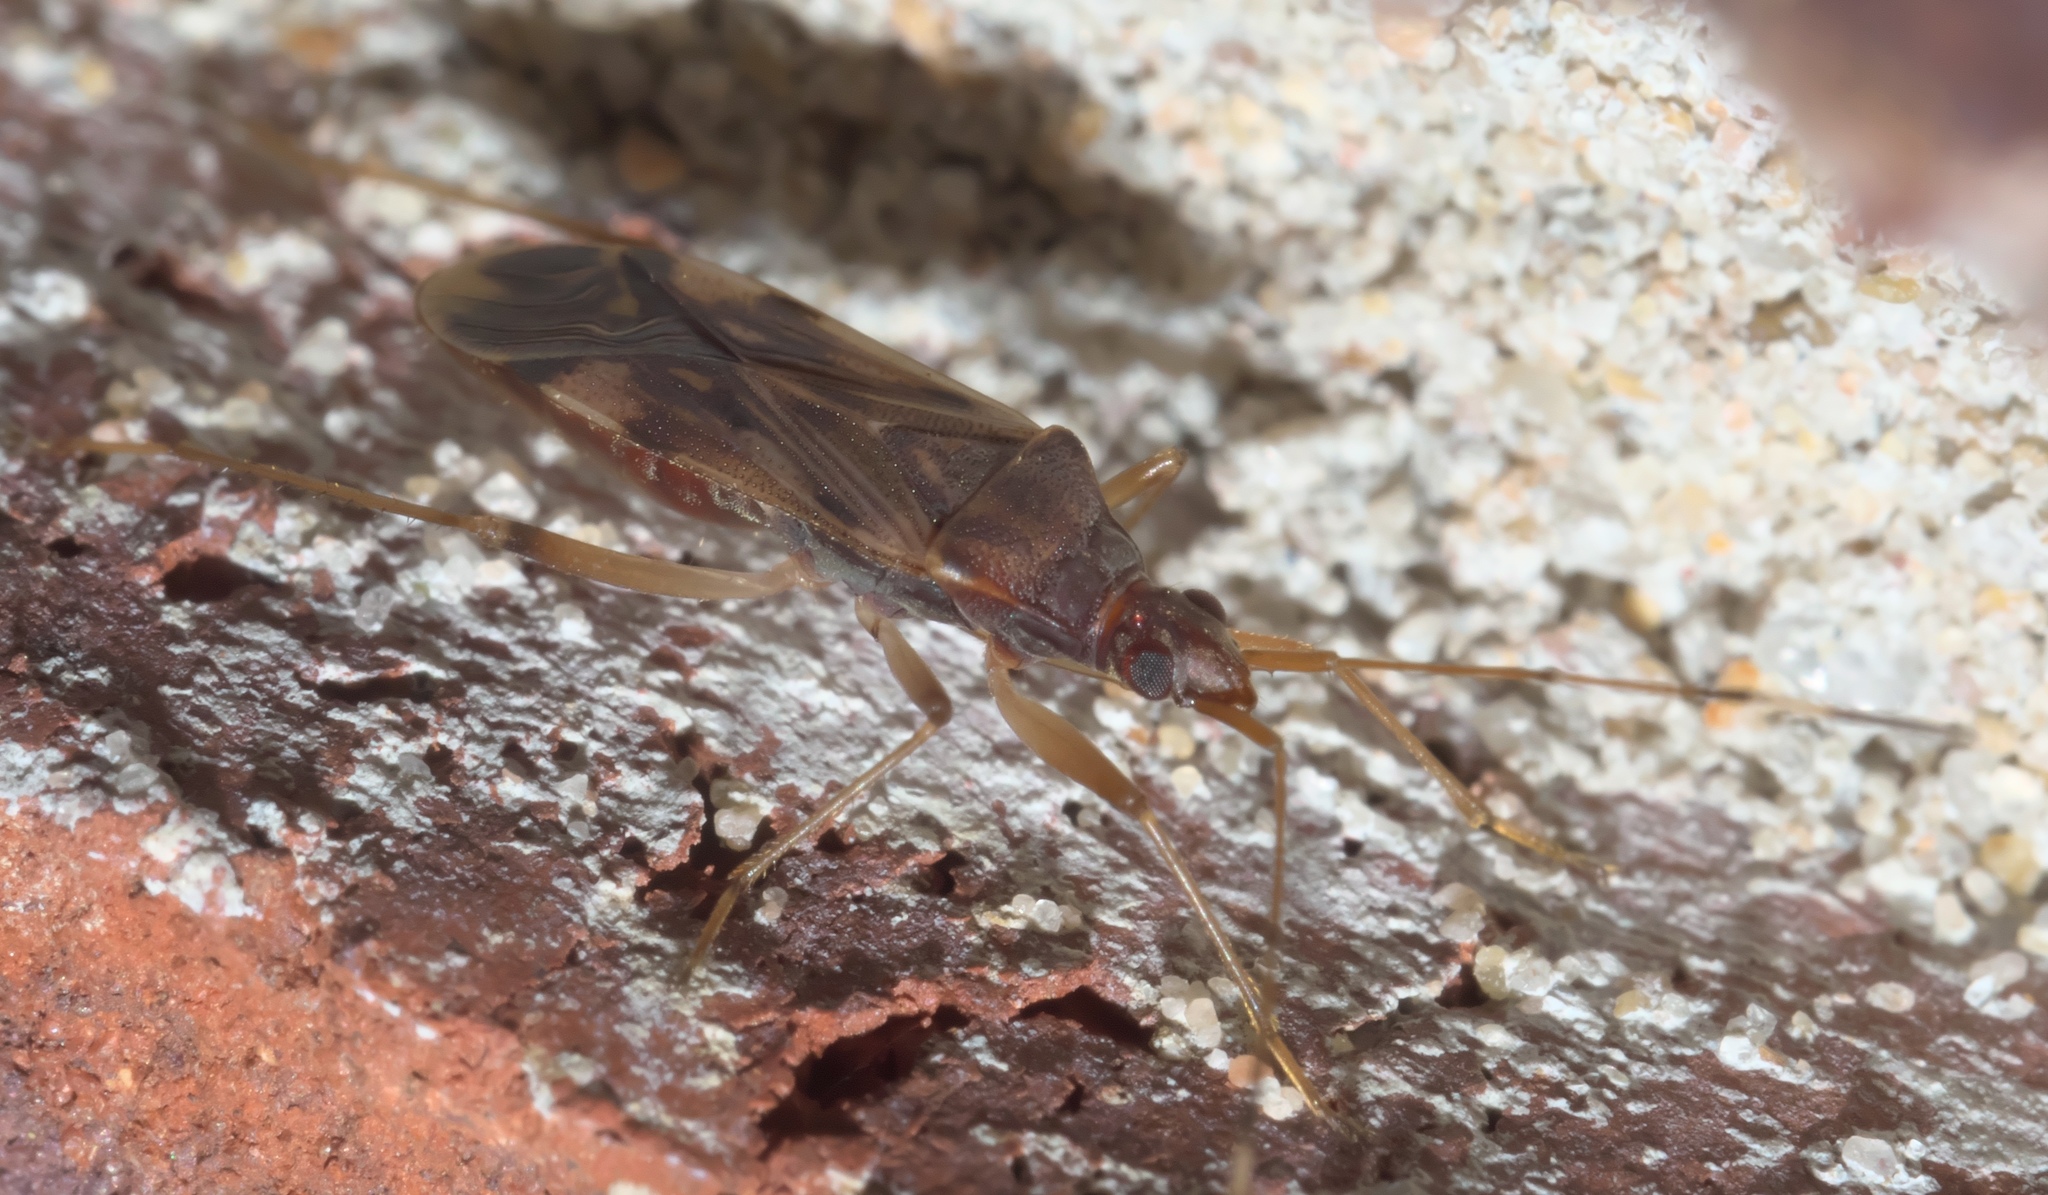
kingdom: Animalia
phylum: Arthropoda
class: Insecta
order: Hemiptera
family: Rhyparochromidae
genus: Ozophora
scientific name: Ozophora depicturata
